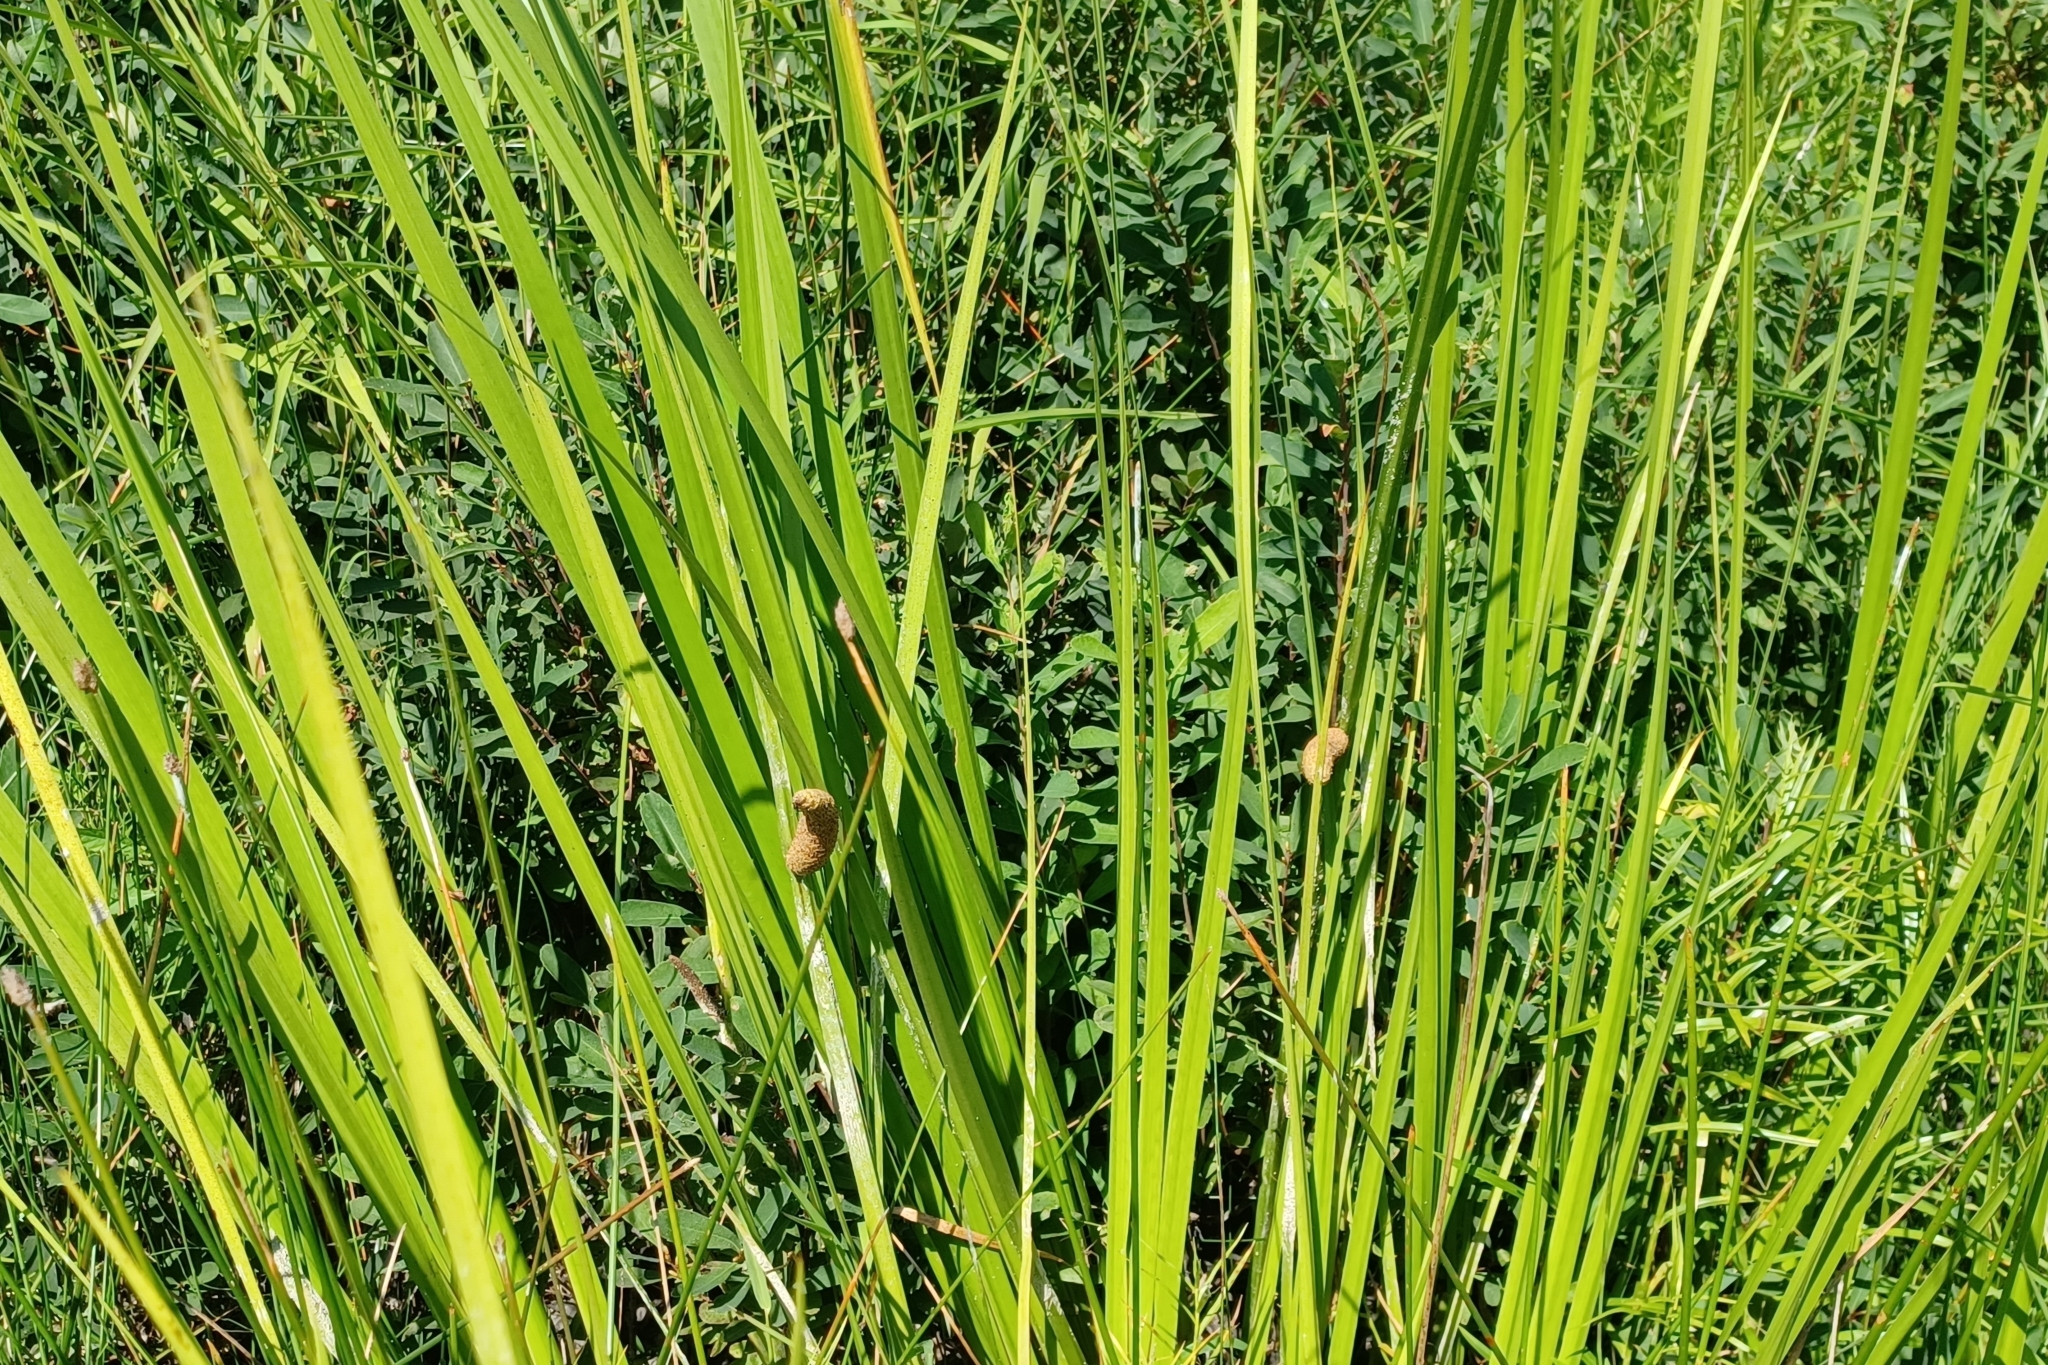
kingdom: Plantae
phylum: Tracheophyta
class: Liliopsida
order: Acorales
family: Acoraceae
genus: Acorus
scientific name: Acorus calamus
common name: Sweet-flag
